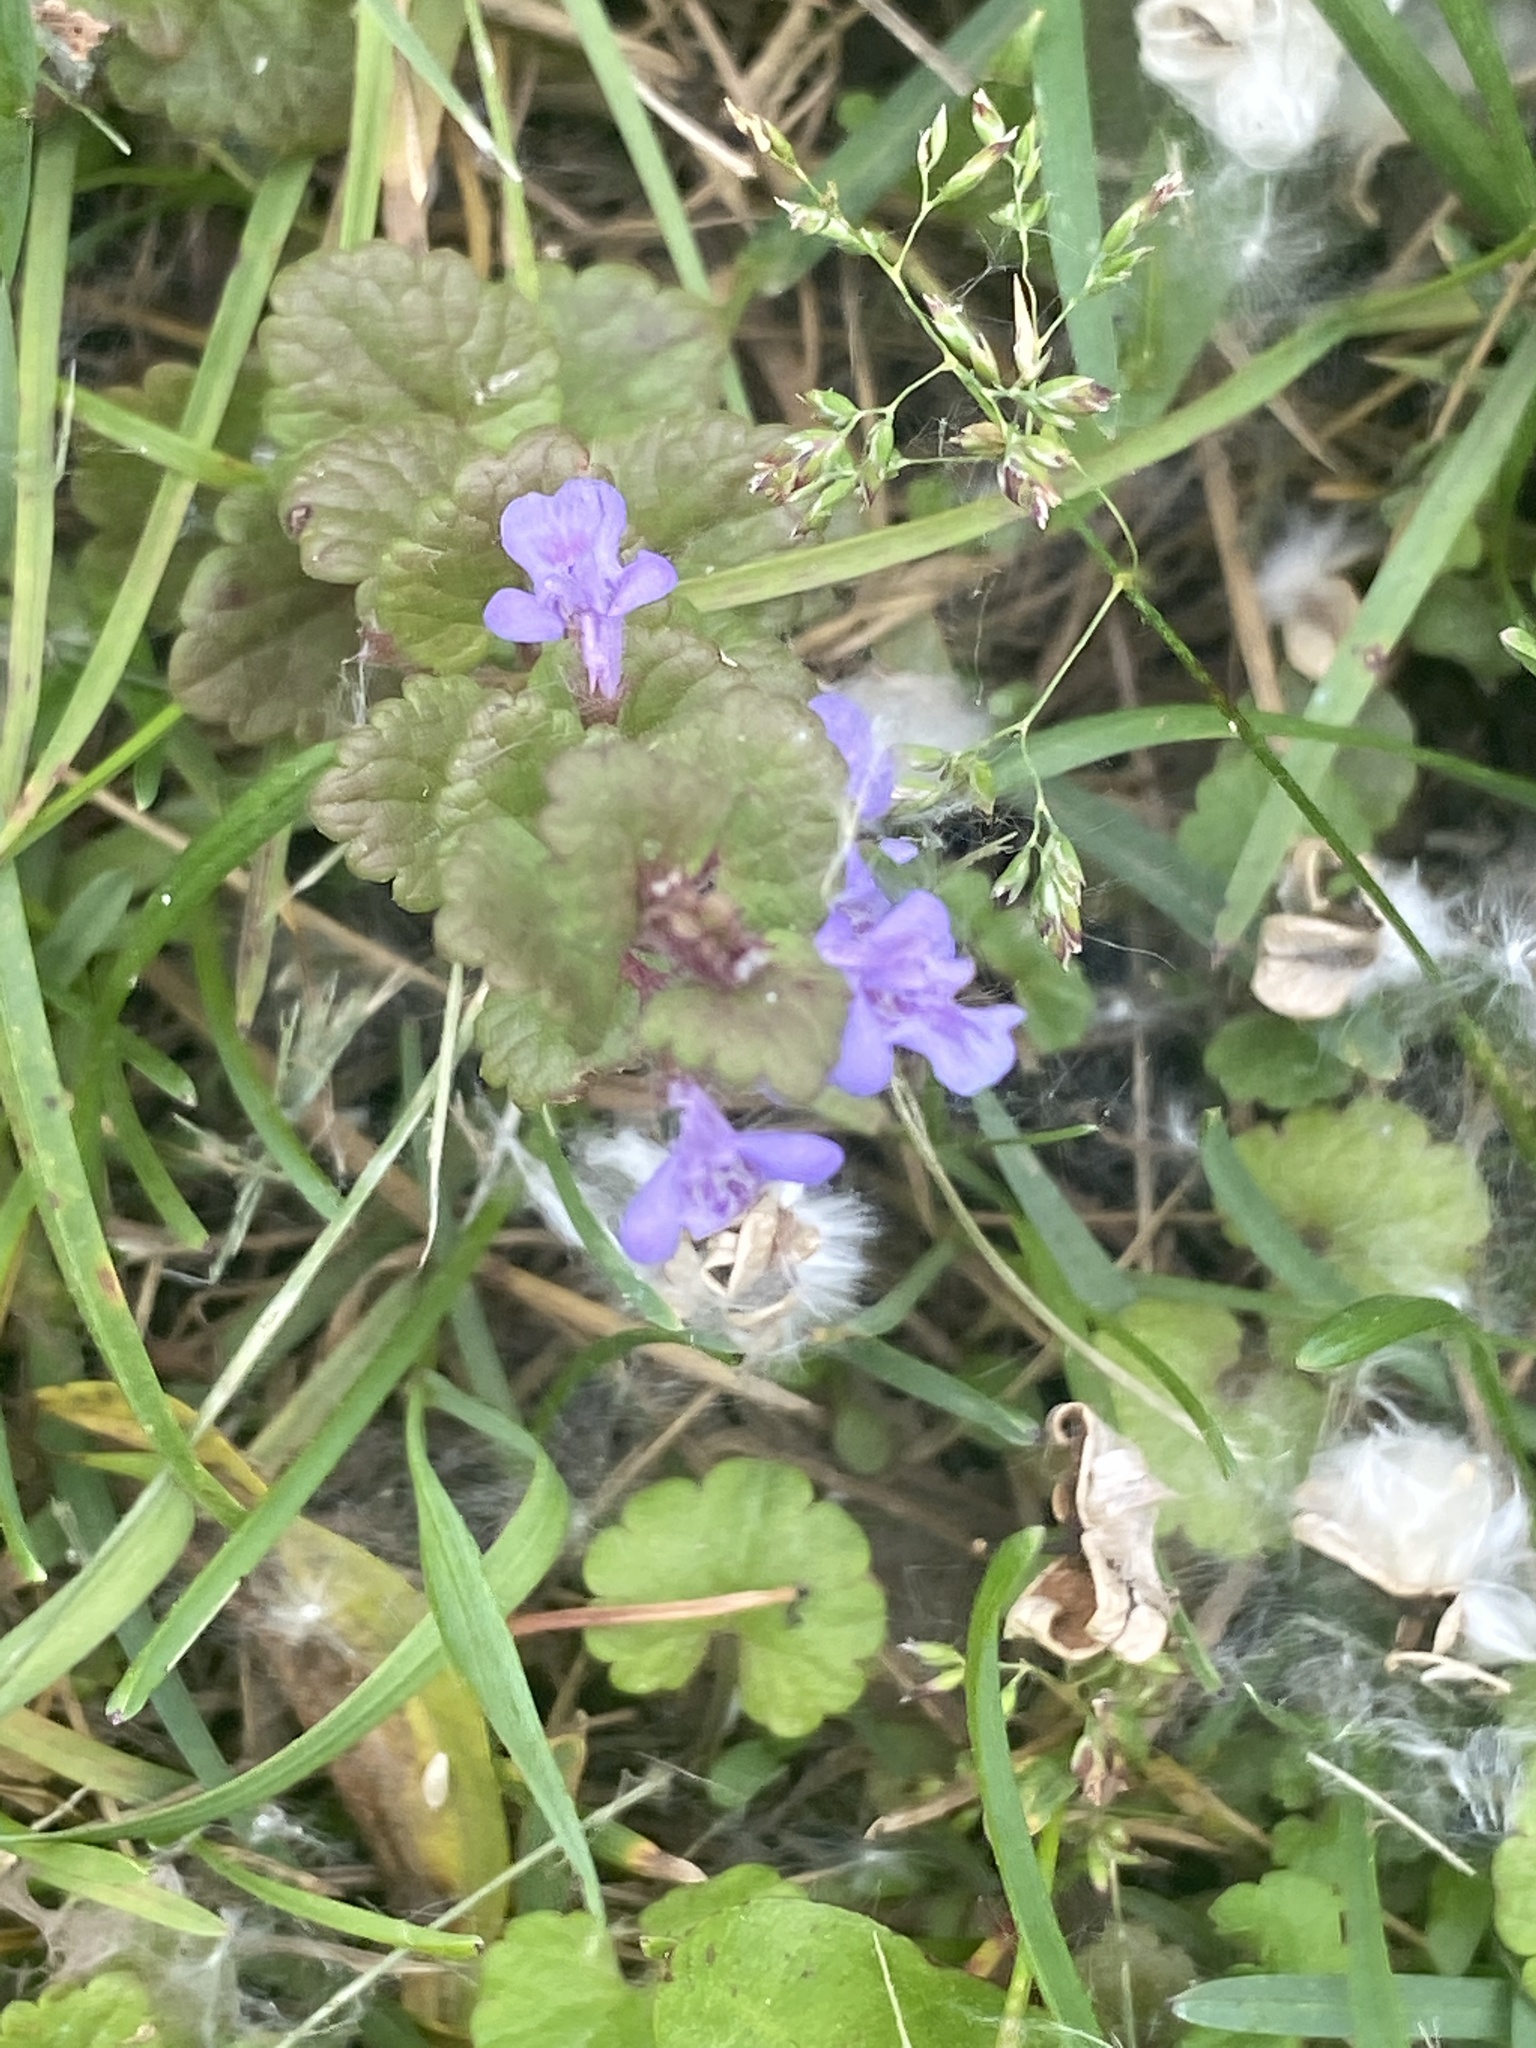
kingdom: Plantae
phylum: Tracheophyta
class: Magnoliopsida
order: Lamiales
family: Lamiaceae
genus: Glechoma
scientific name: Glechoma hederacea
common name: Ground ivy
